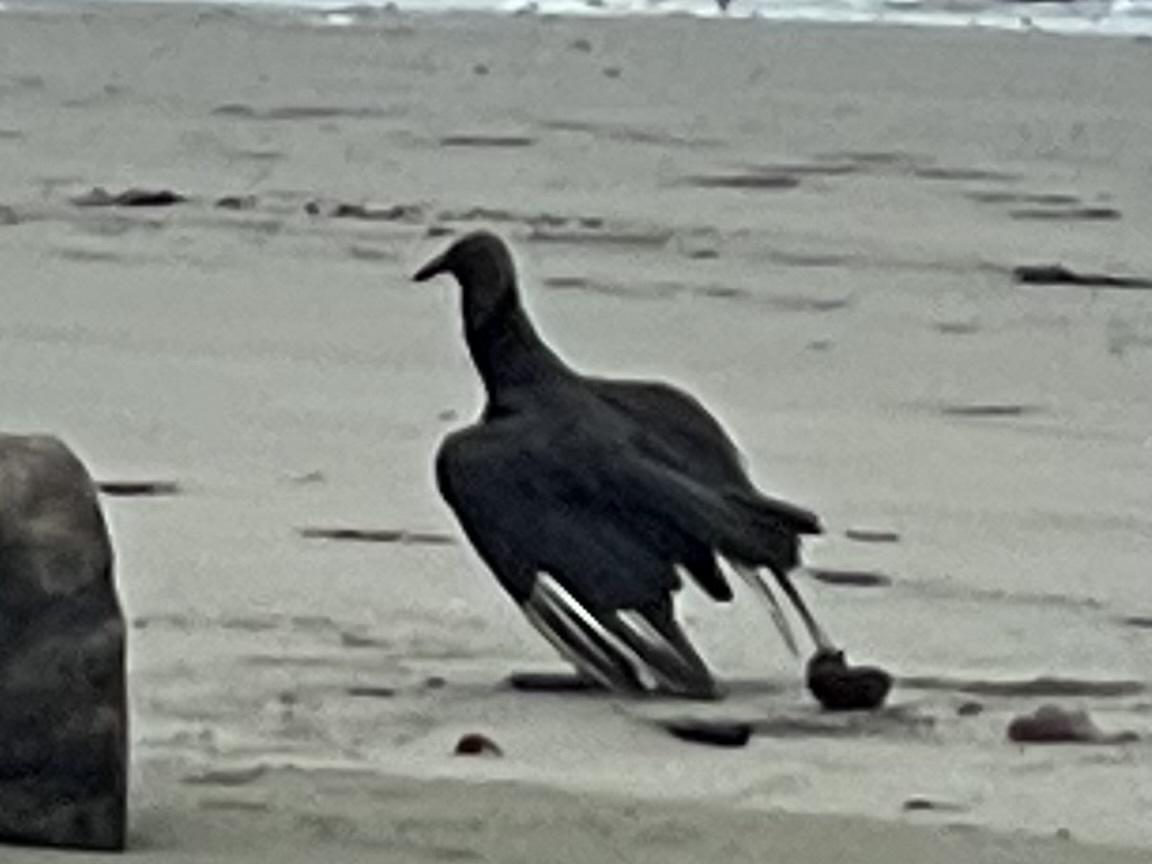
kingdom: Animalia
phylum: Chordata
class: Aves
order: Accipitriformes
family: Cathartidae
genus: Coragyps
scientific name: Coragyps atratus
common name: Black vulture
